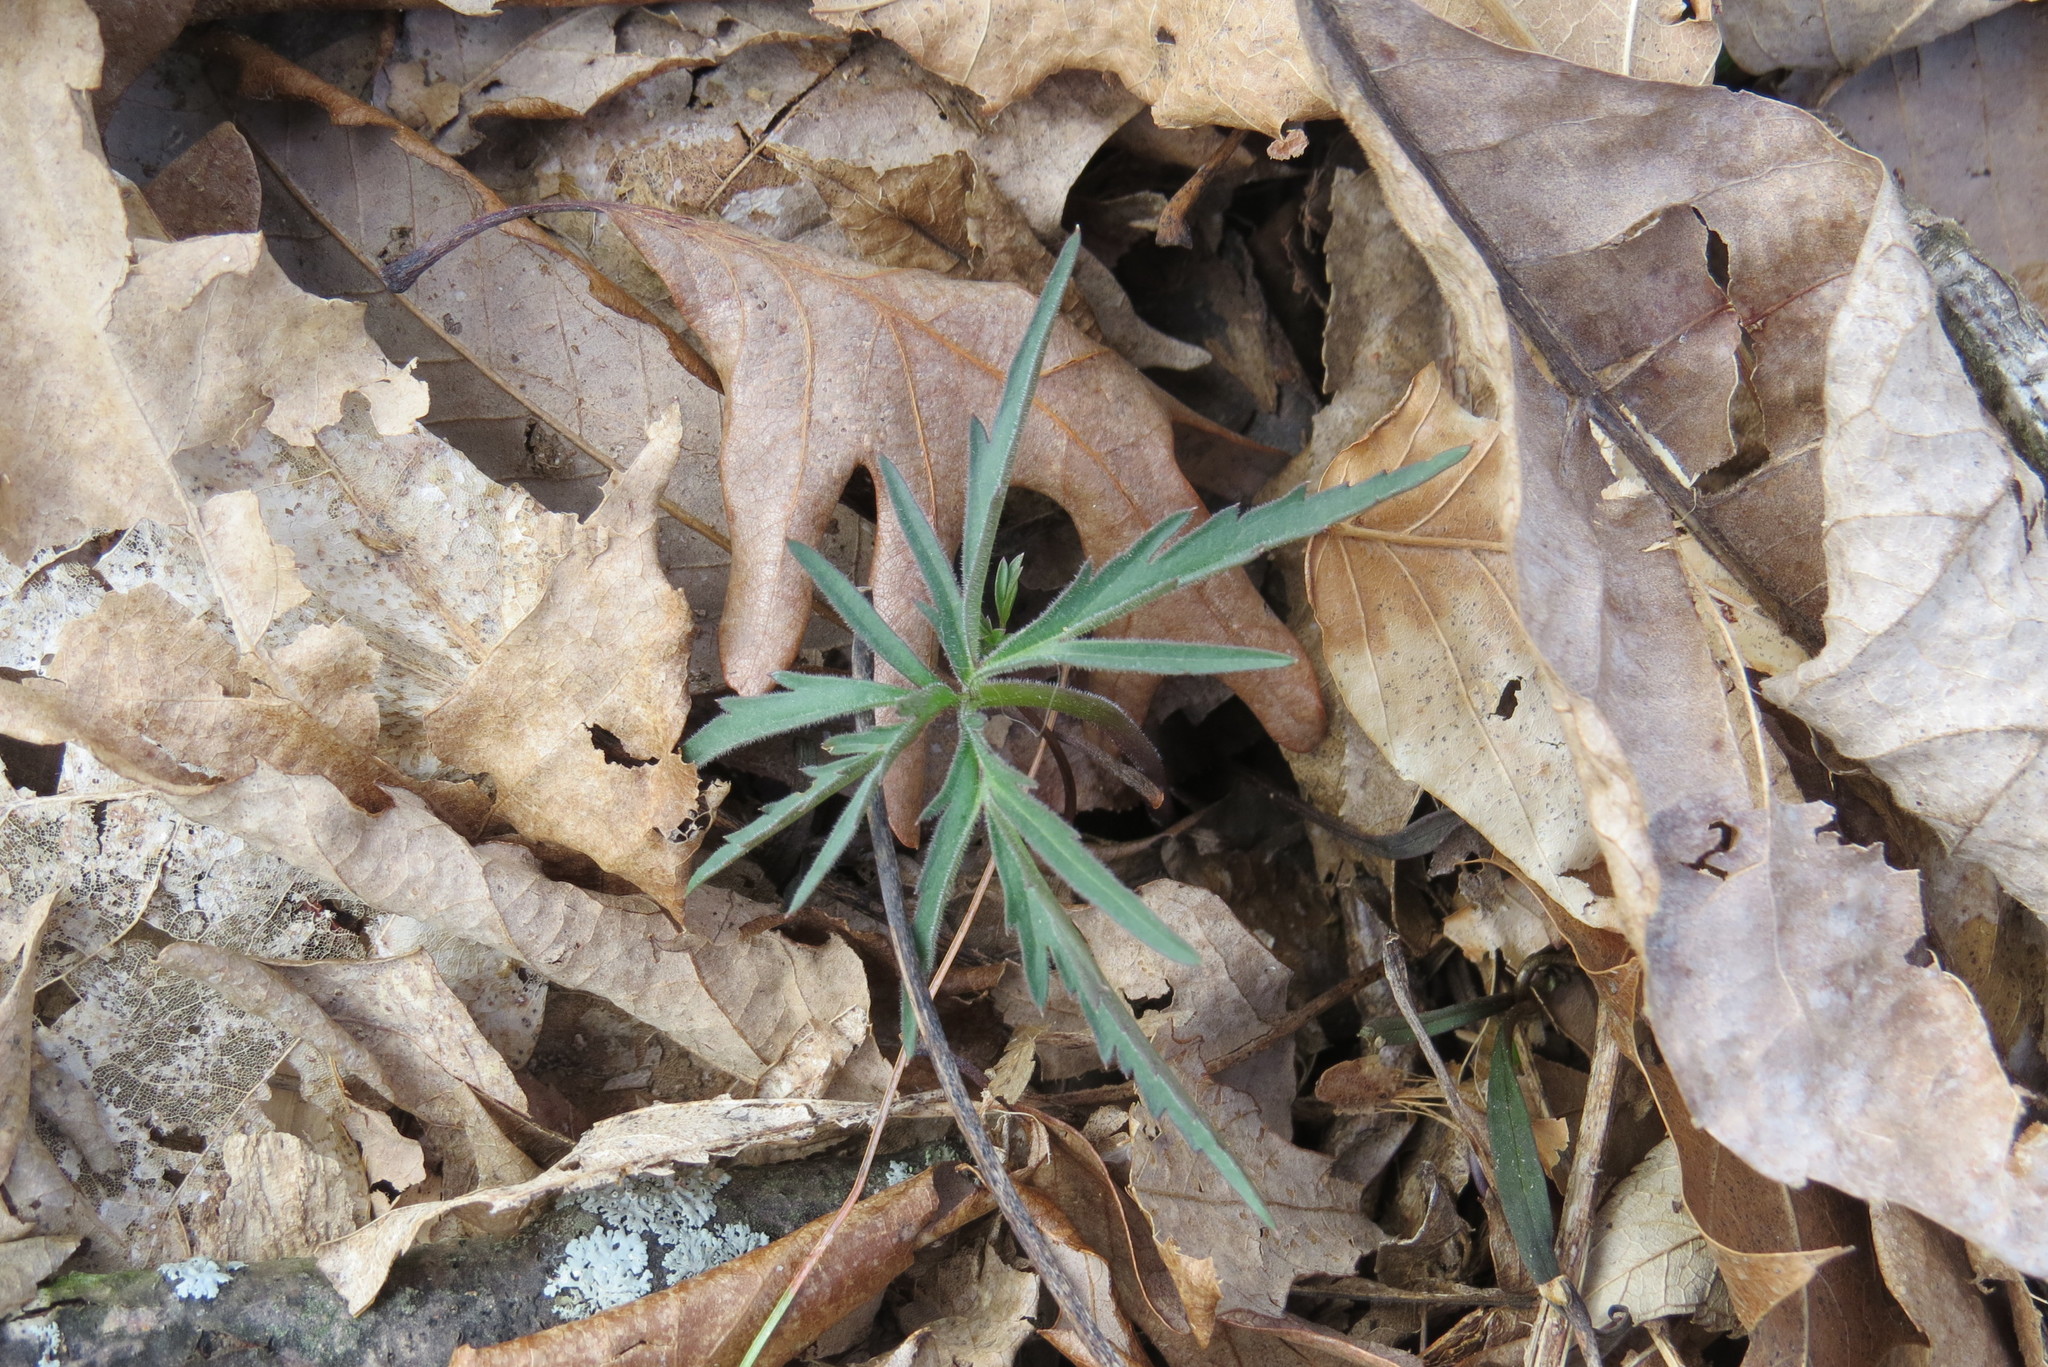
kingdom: Plantae
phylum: Tracheophyta
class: Magnoliopsida
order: Brassicales
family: Brassicaceae
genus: Cardamine
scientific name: Cardamine concatenata
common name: Cut-leaf toothcup
